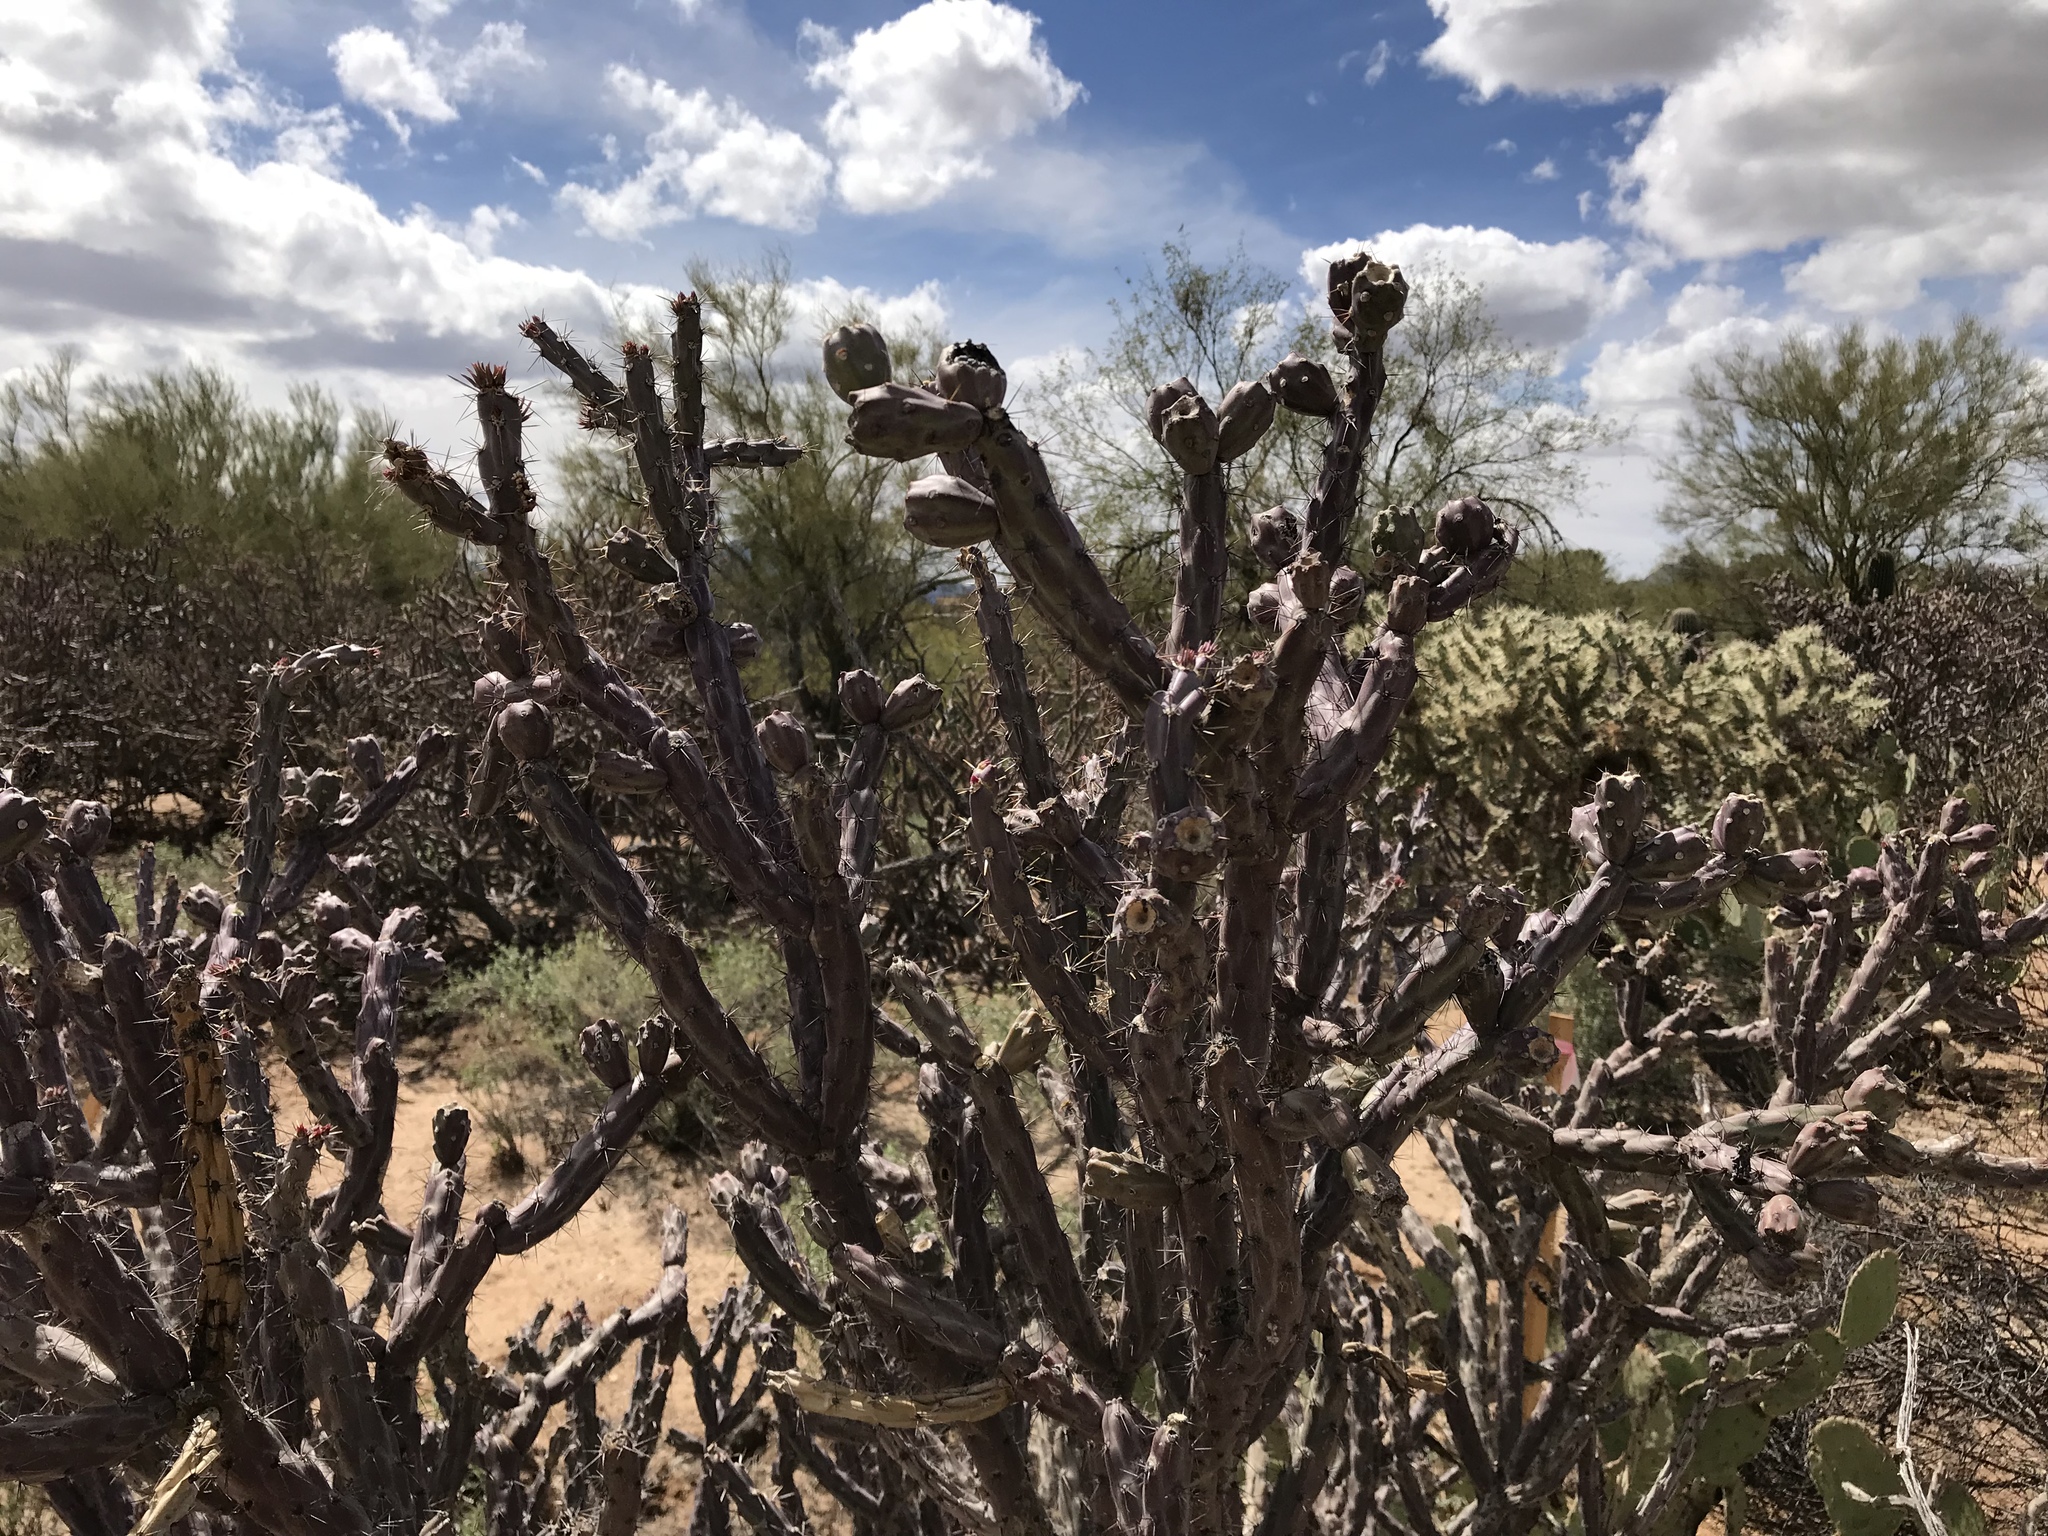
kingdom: Plantae
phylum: Tracheophyta
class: Magnoliopsida
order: Caryophyllales
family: Cactaceae
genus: Cylindropuntia
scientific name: Cylindropuntia thurberi
